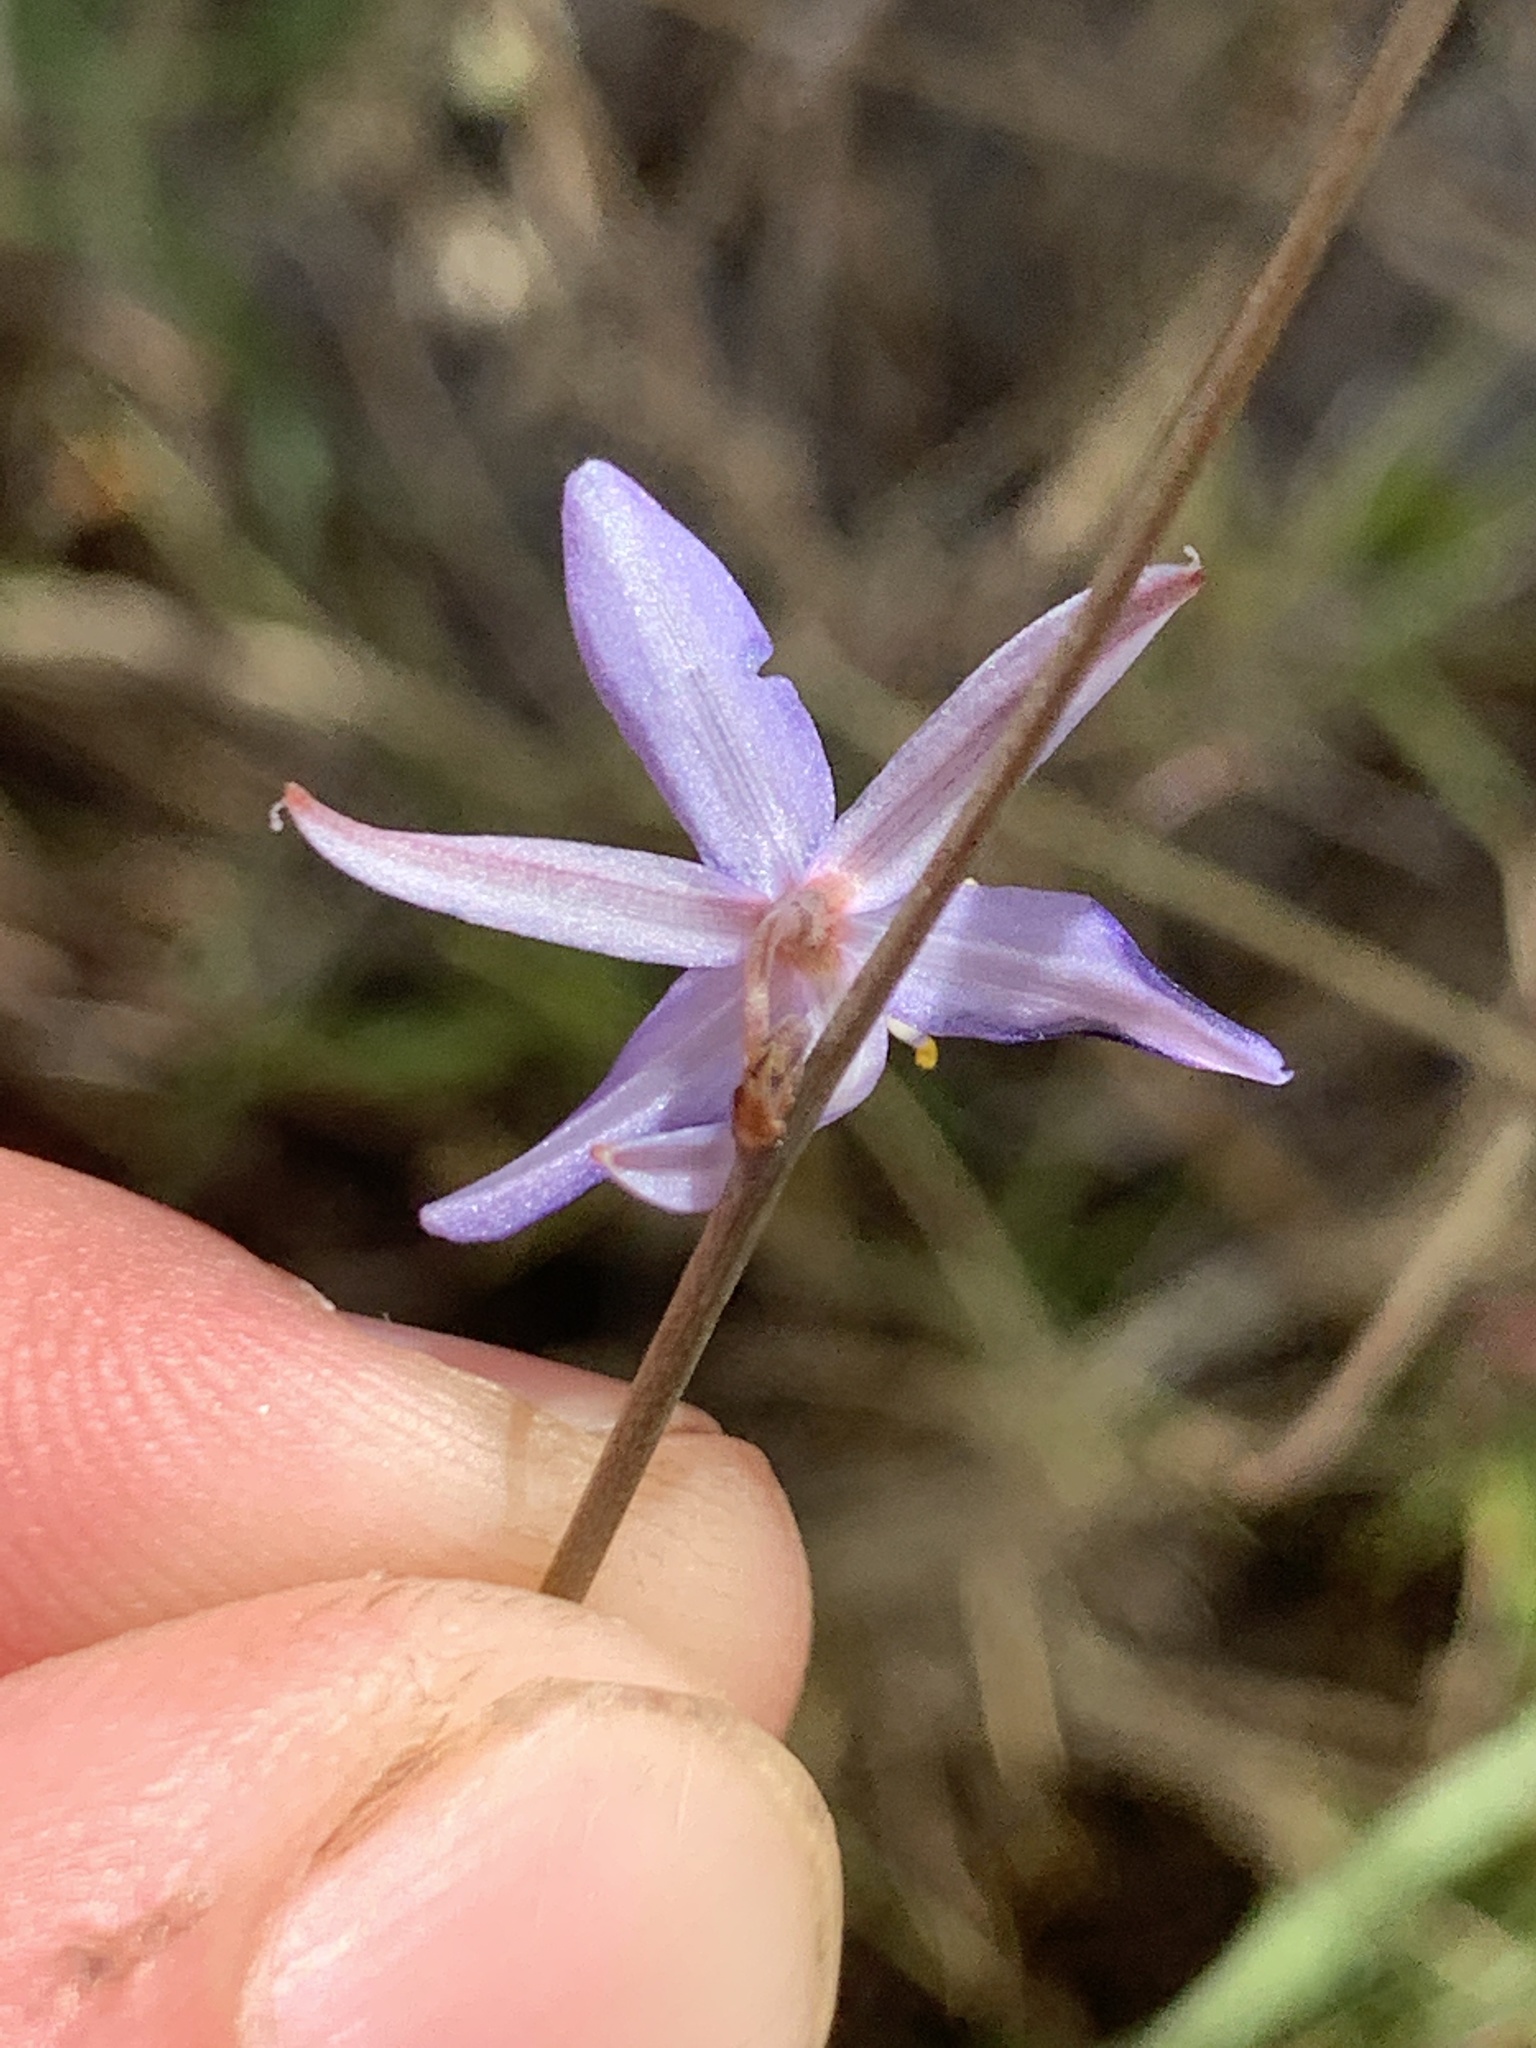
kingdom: Plantae
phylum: Tracheophyta
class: Liliopsida
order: Asparagales
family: Asphodelaceae
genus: Caesia
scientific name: Caesia contorta
